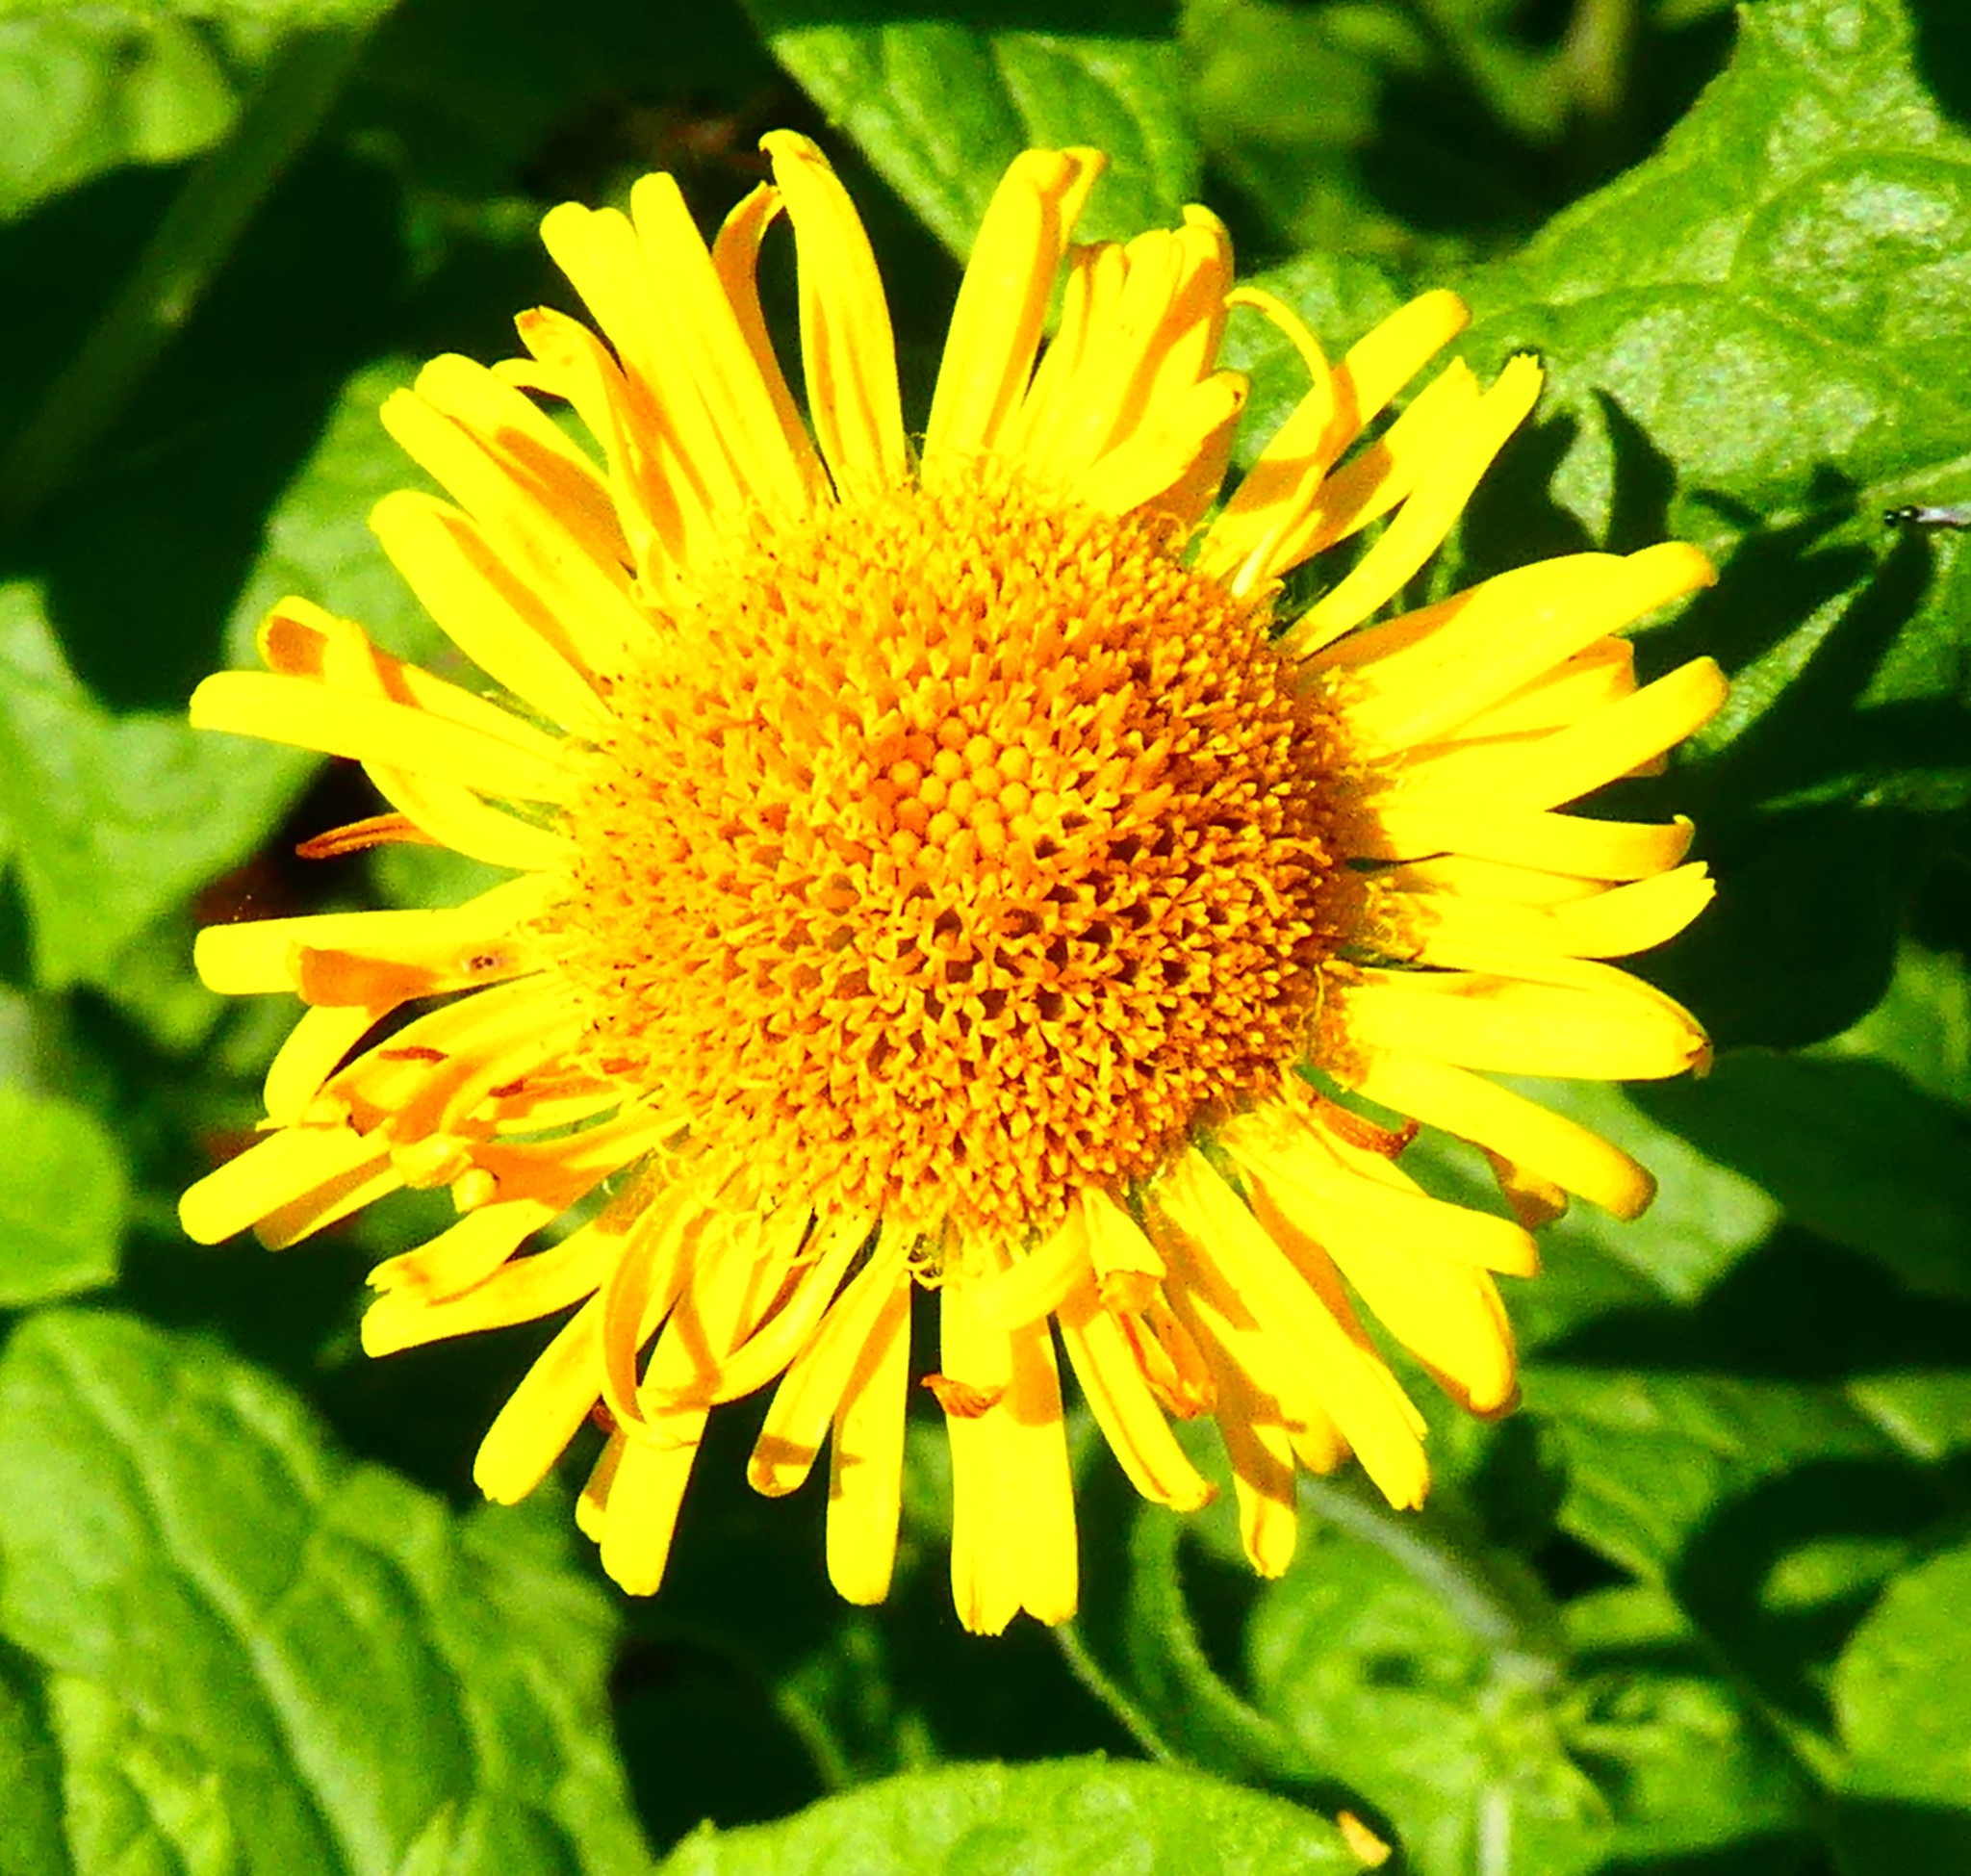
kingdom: Plantae
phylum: Tracheophyta
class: Magnoliopsida
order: Asterales
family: Asteraceae
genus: Pulicaria
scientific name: Pulicaria dysenterica
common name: Common fleabane
